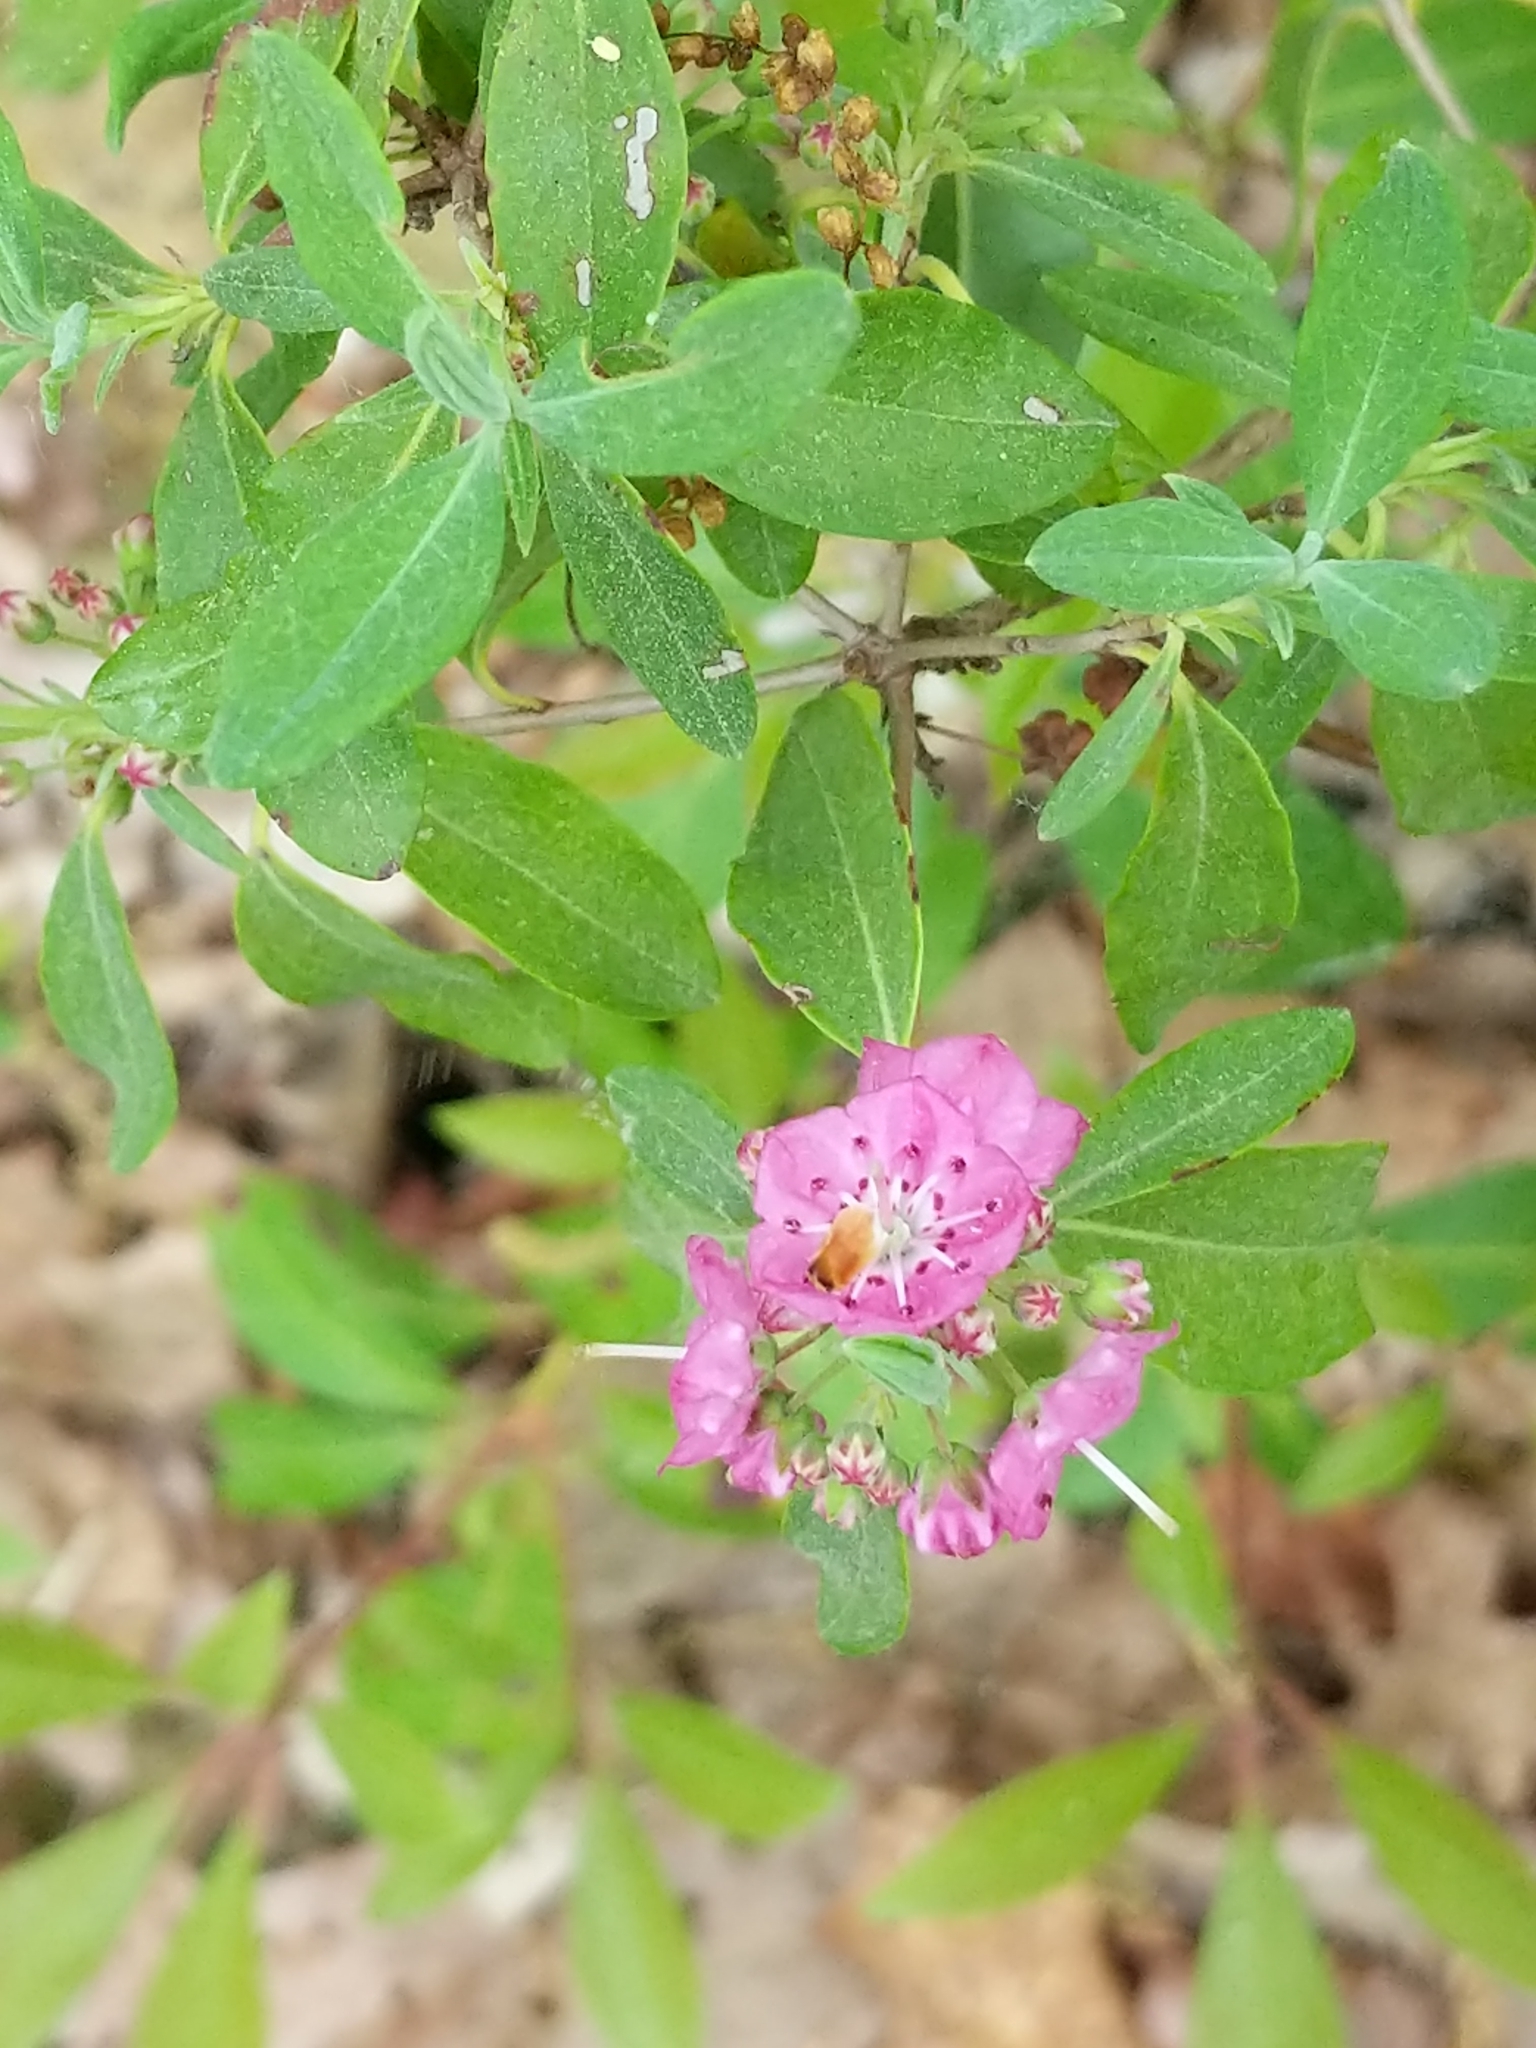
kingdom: Plantae
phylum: Tracheophyta
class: Magnoliopsida
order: Ericales
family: Ericaceae
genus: Kalmia
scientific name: Kalmia angustifolia
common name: Sheep-laurel
